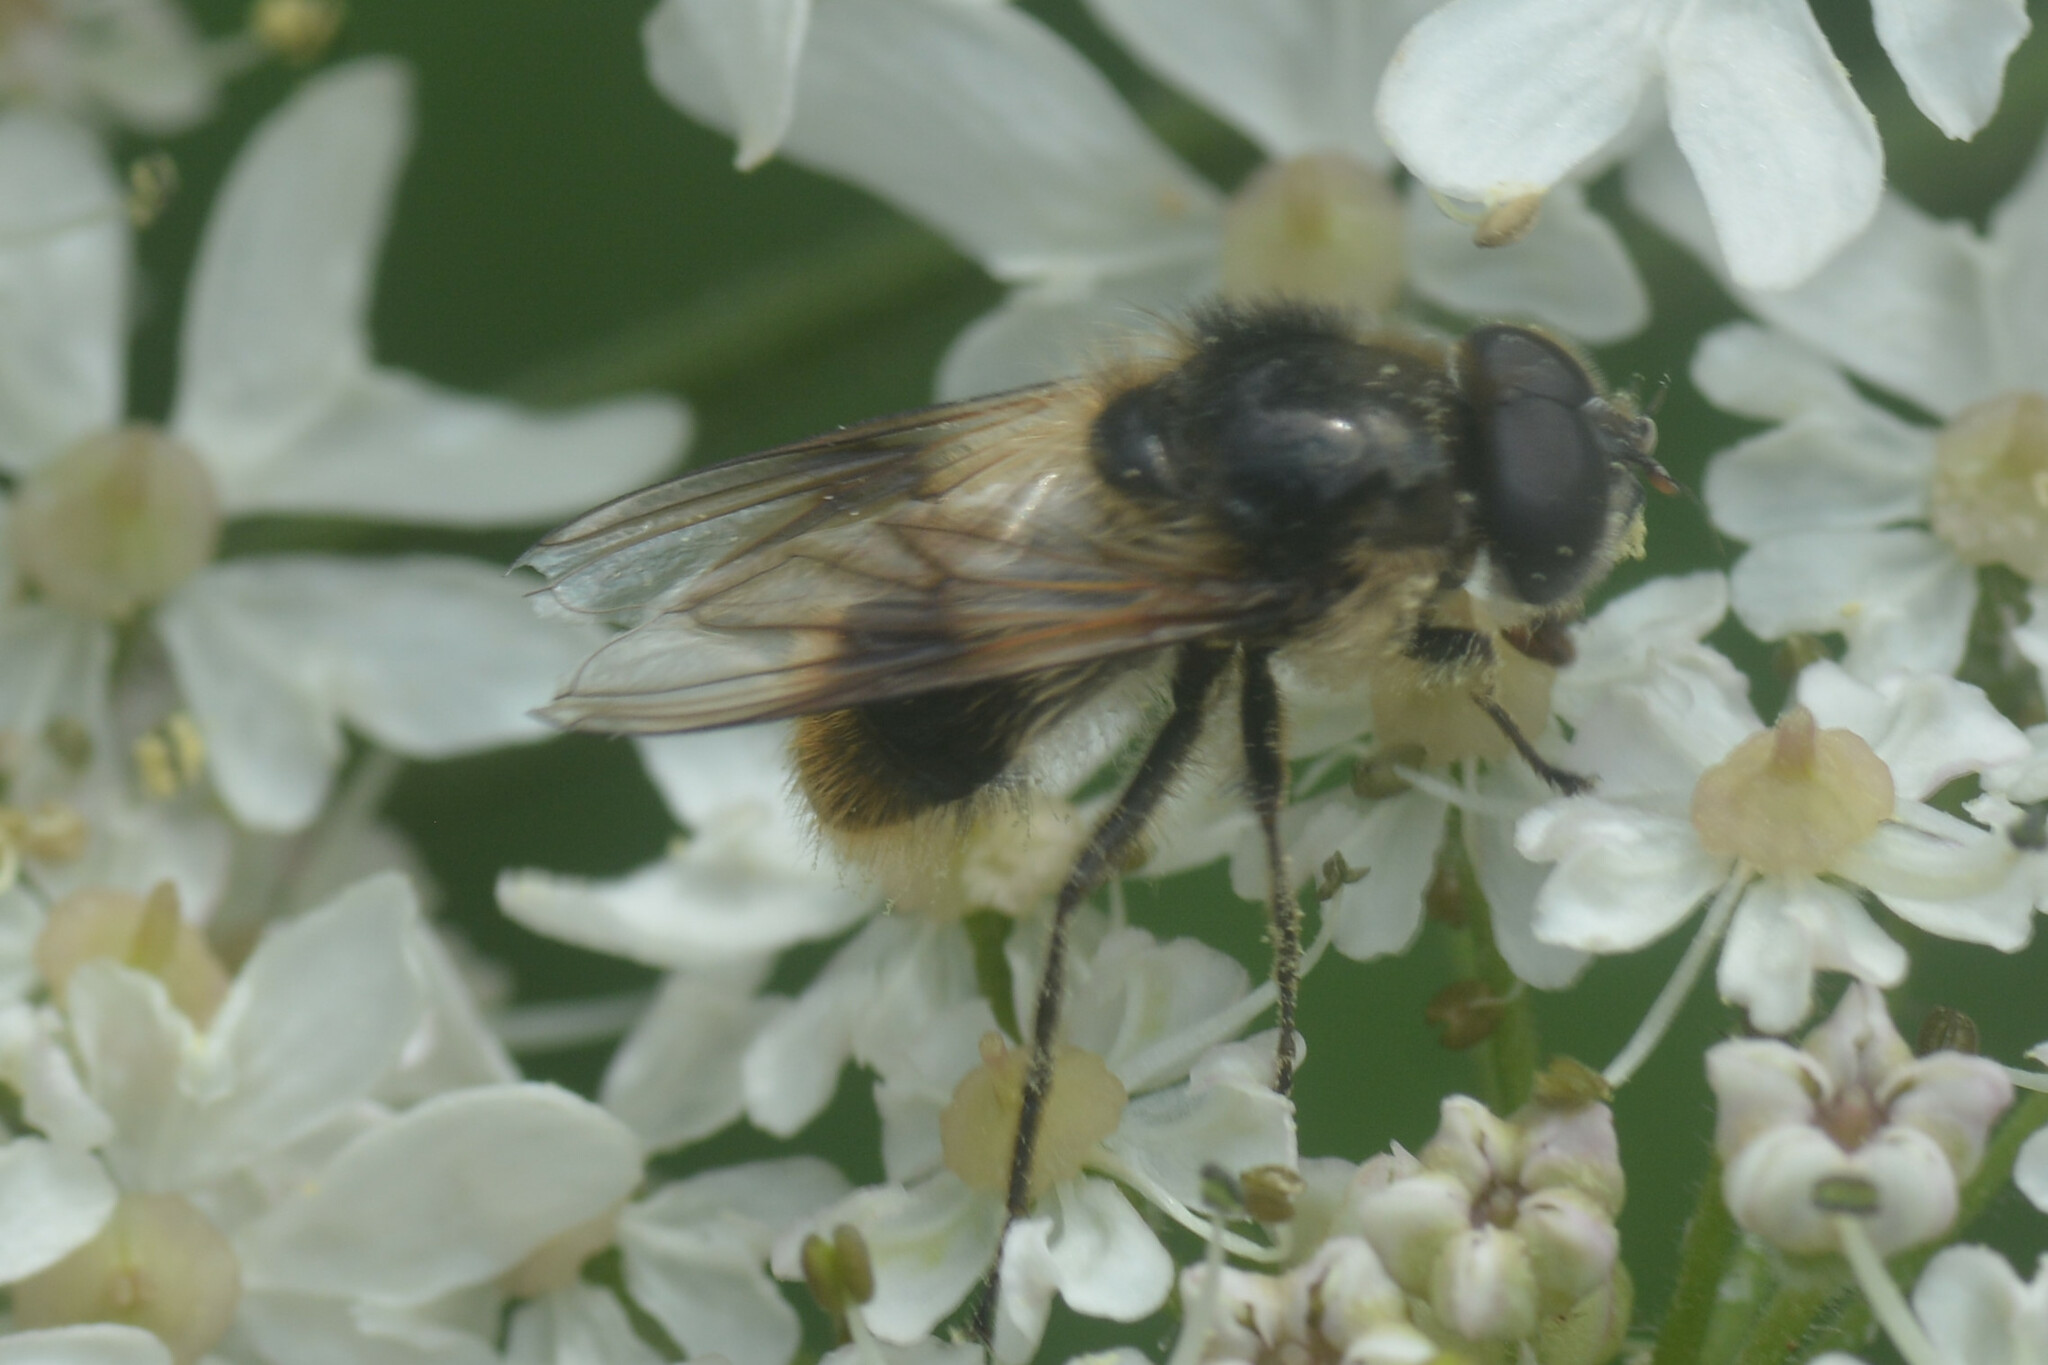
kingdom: Animalia
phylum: Arthropoda
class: Insecta
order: Diptera
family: Syrphidae
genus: Cheilosia
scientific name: Cheilosia illustrata
